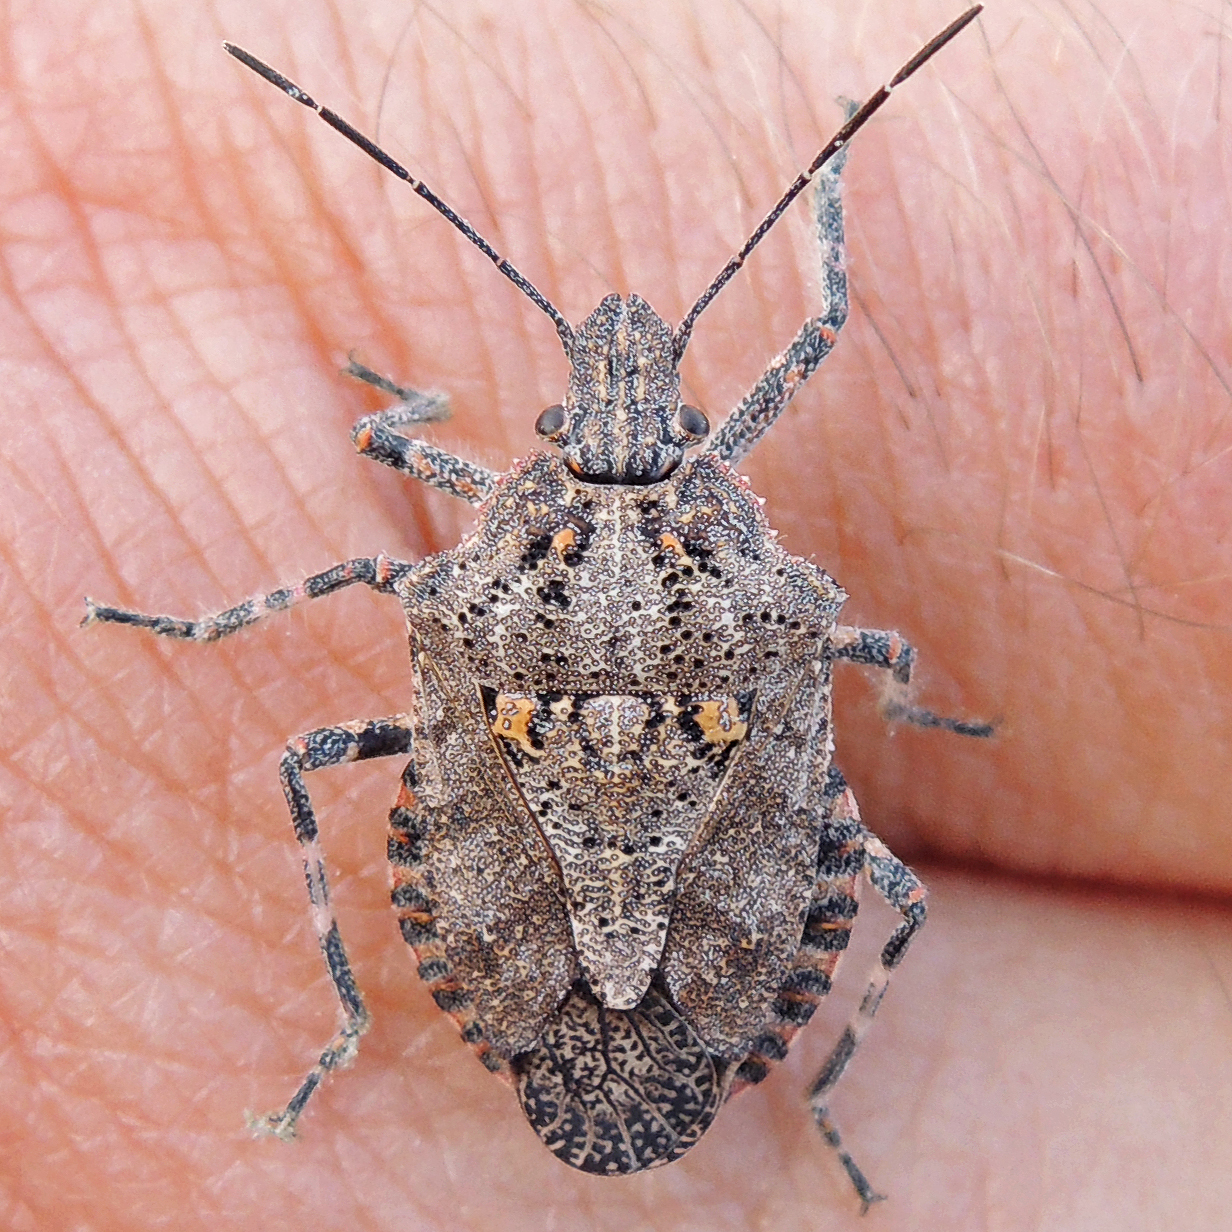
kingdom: Animalia
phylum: Arthropoda
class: Insecta
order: Hemiptera
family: Pentatomidae
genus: Brochymena
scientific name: Brochymena quadripustulata
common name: Four-humped stink bug
